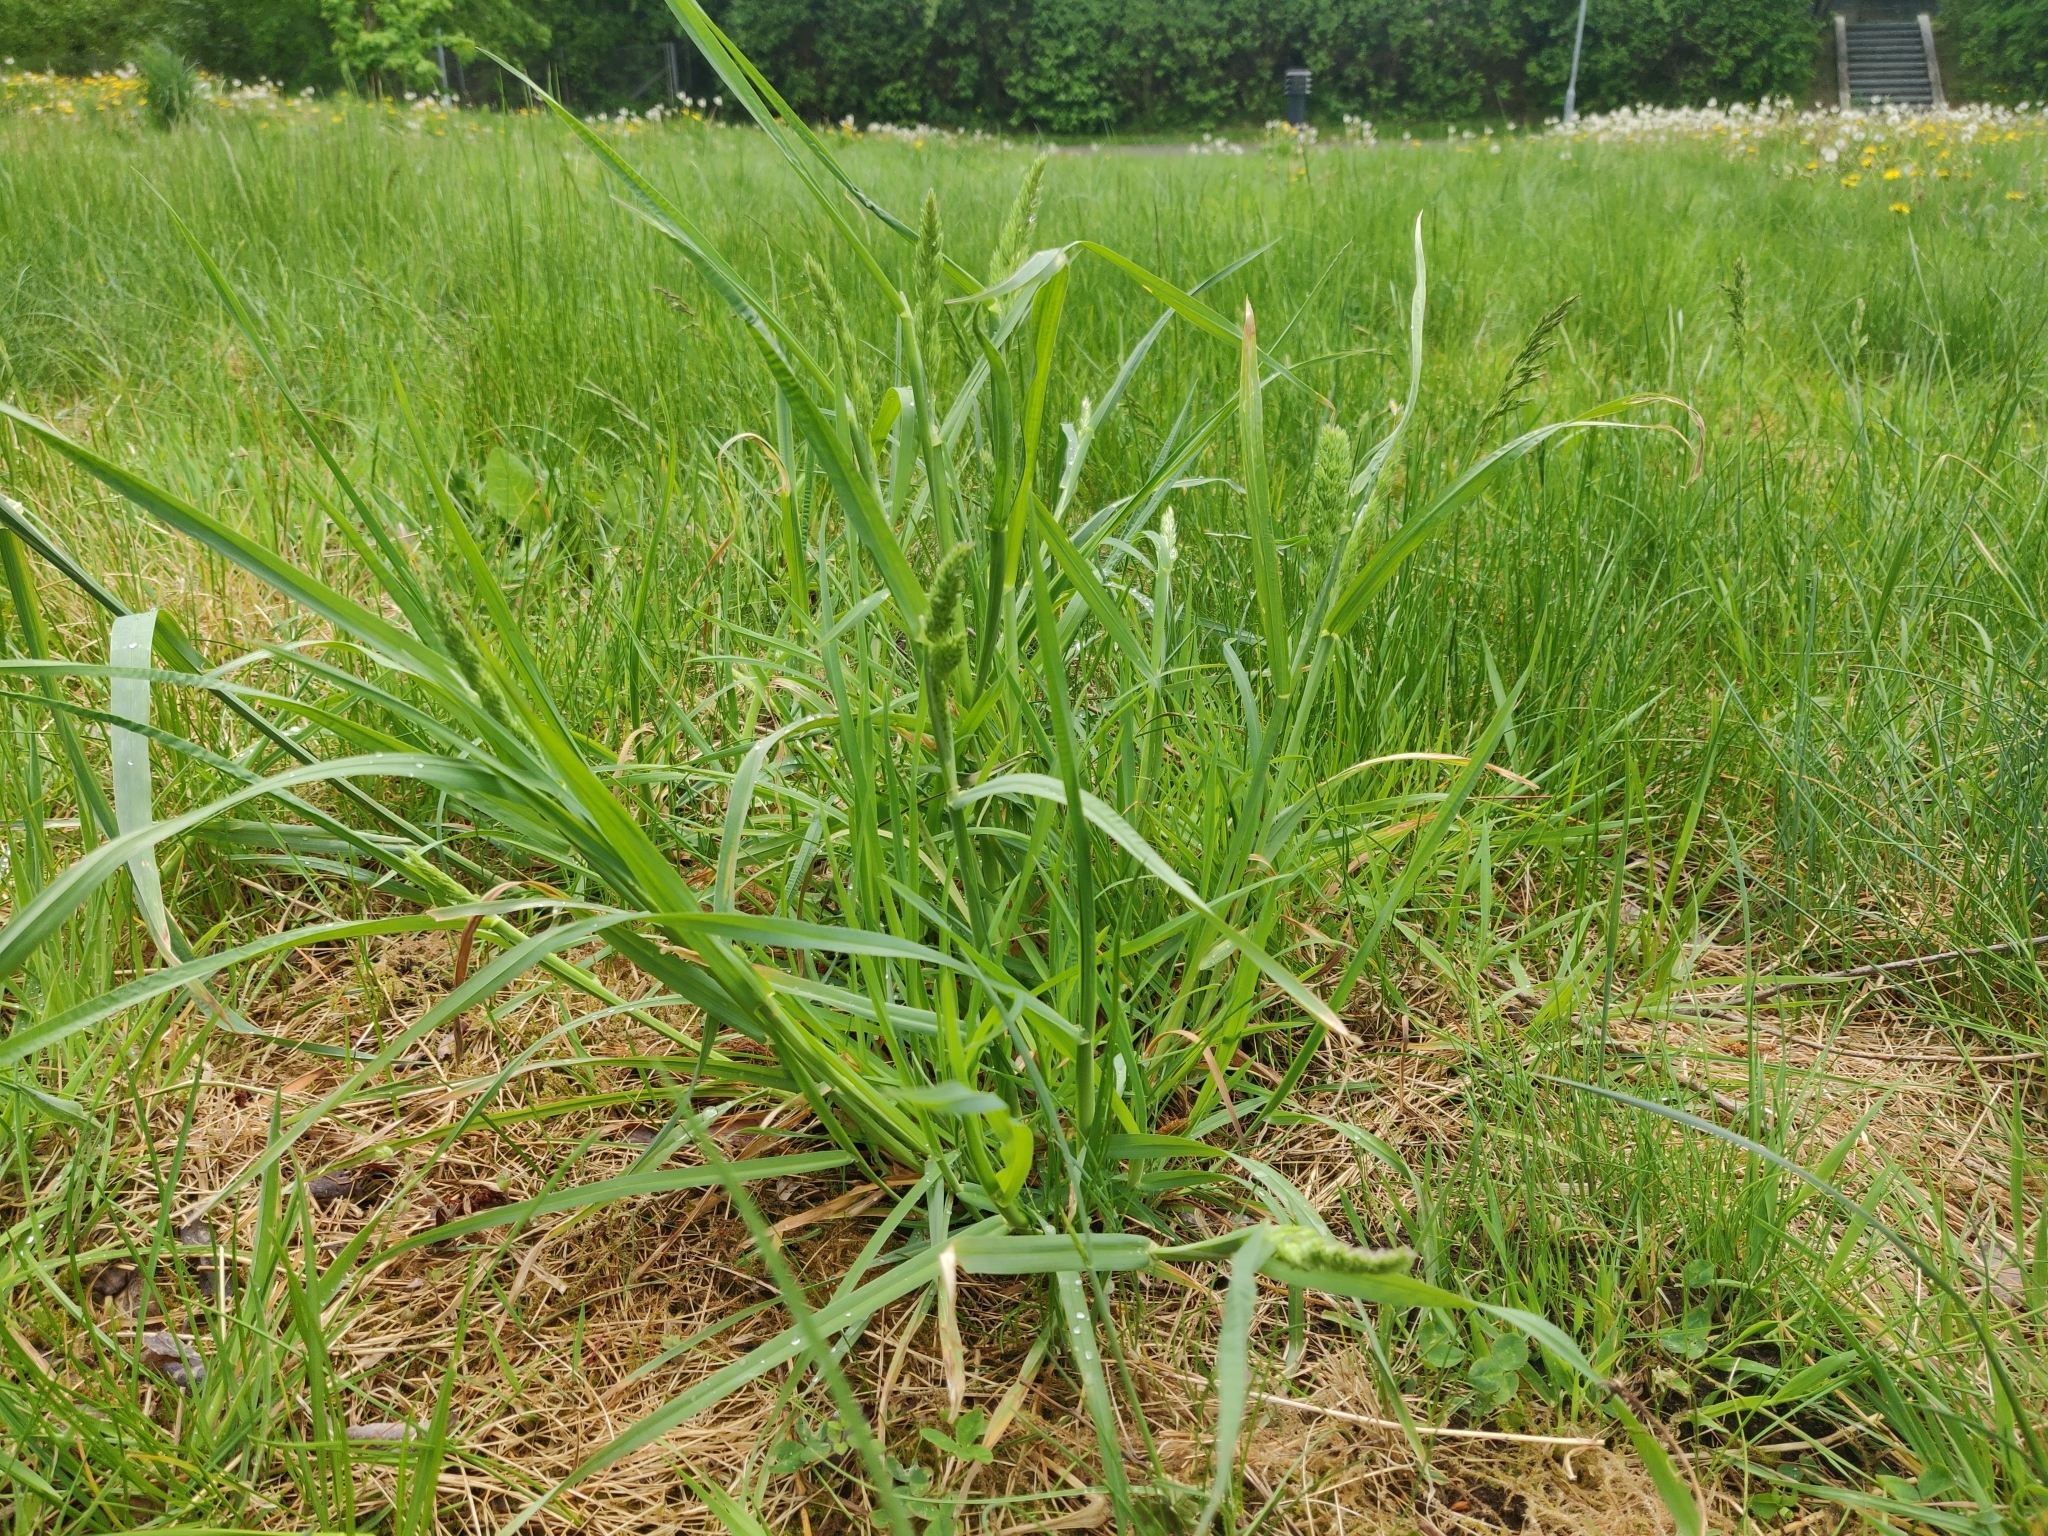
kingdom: Plantae
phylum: Tracheophyta
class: Liliopsida
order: Poales
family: Poaceae
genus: Dactylis
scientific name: Dactylis glomerata
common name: Orchardgrass
